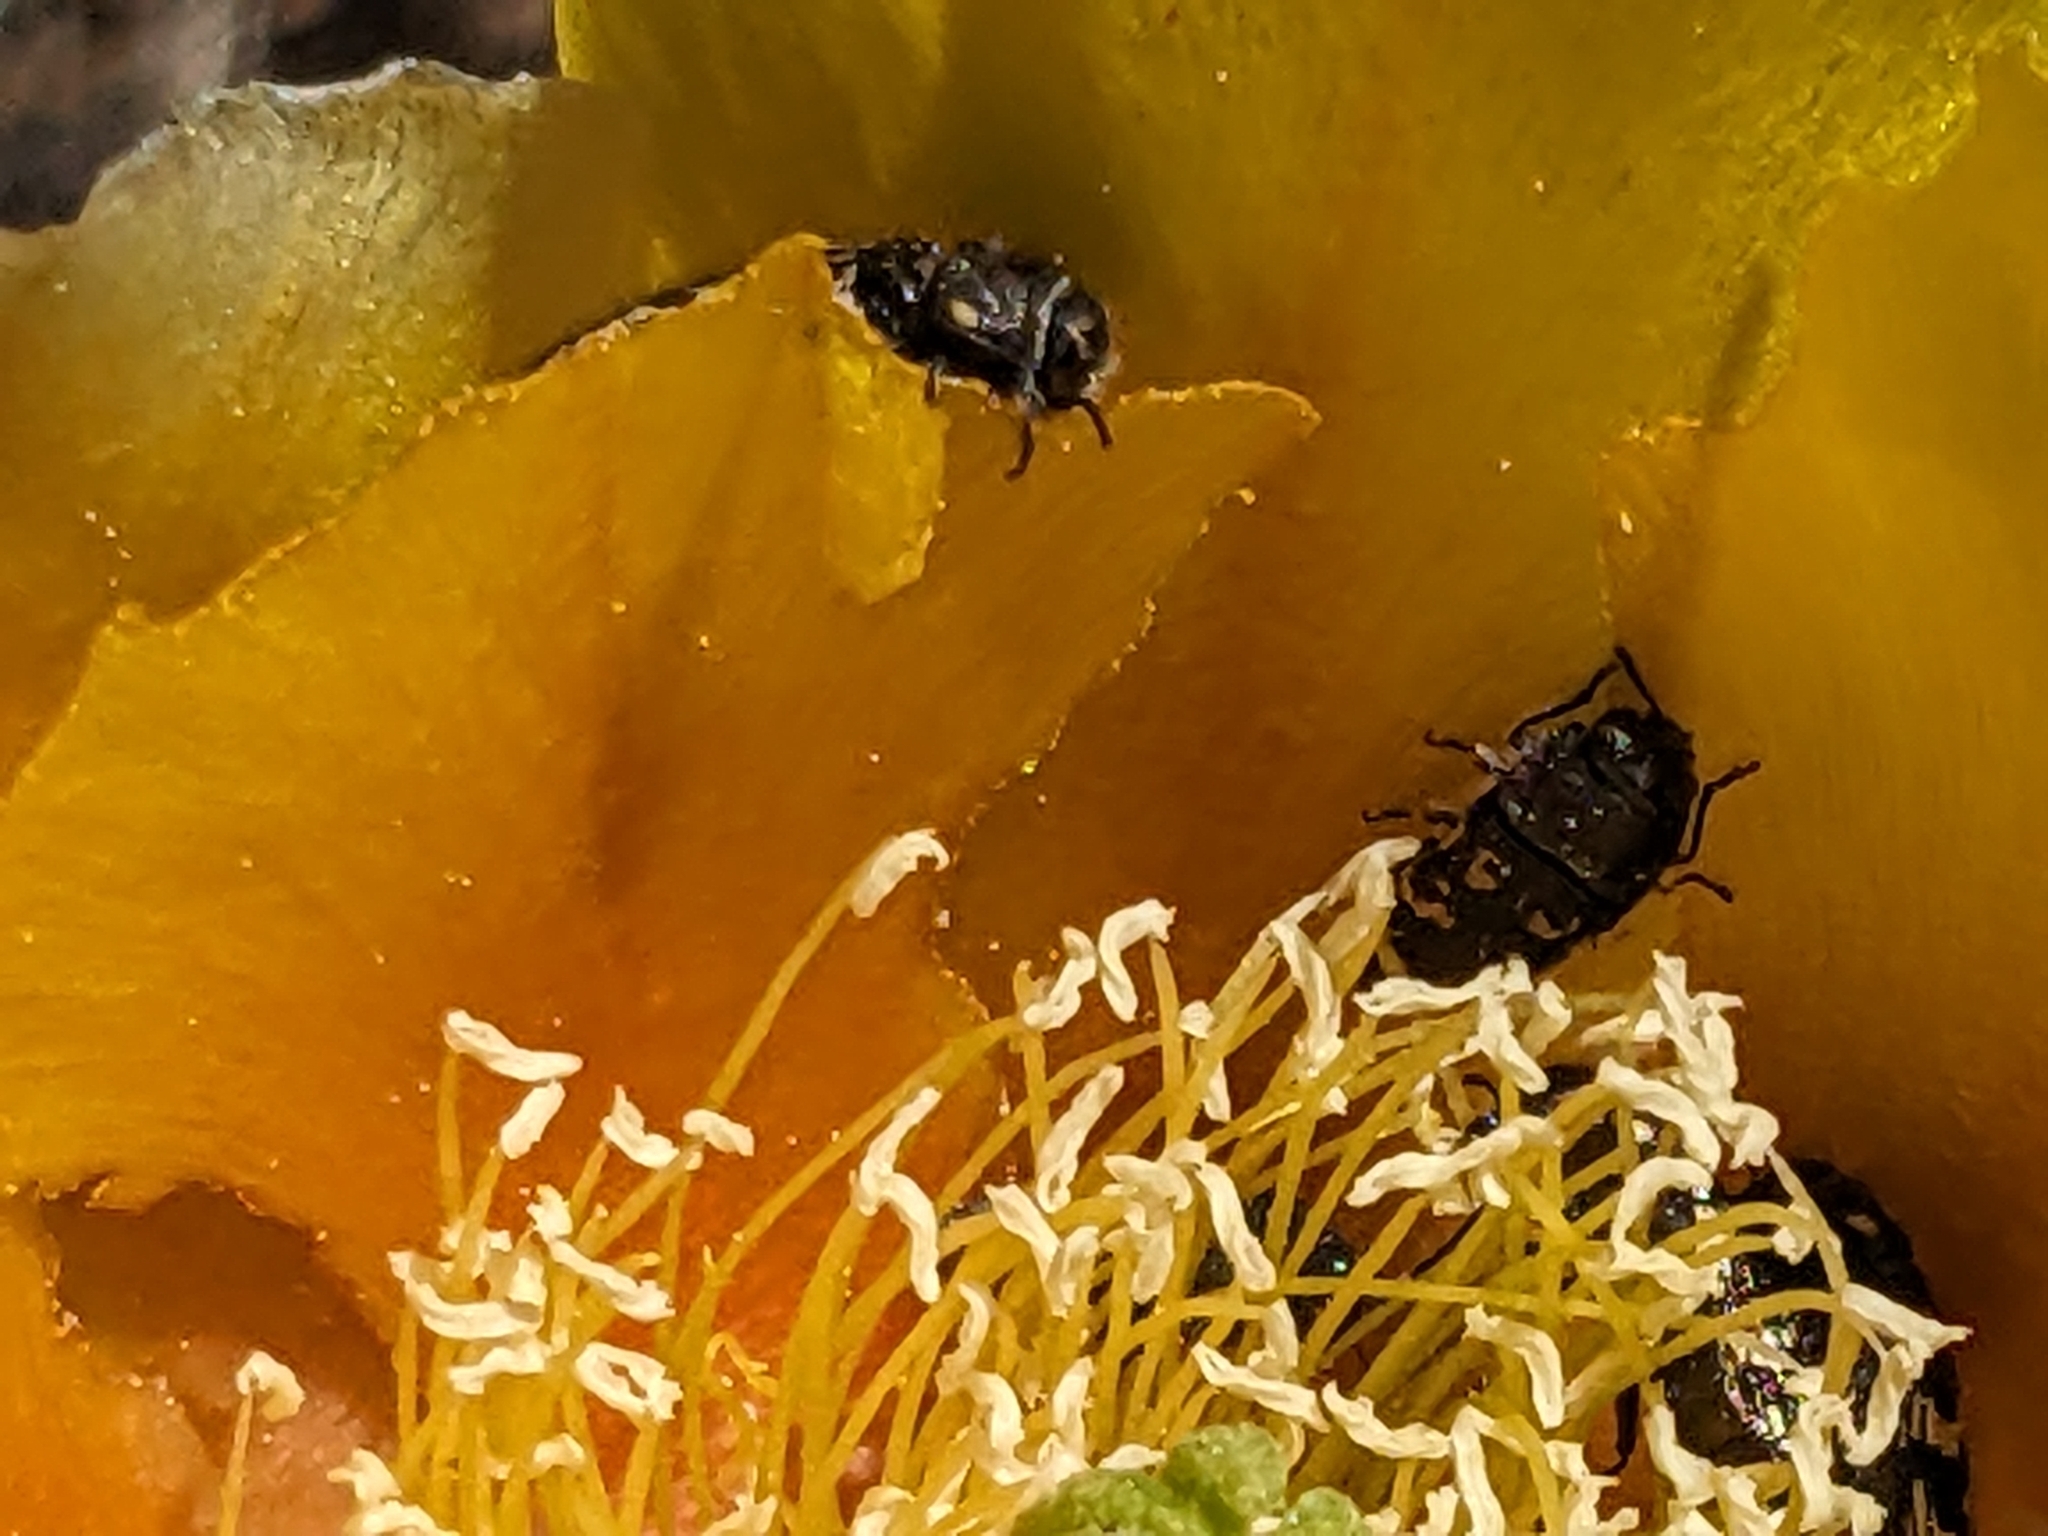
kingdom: Animalia
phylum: Arthropoda
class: Insecta
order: Coleoptera
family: Buprestidae
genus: Acmaeodera
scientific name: Acmaeodera bowditchi
